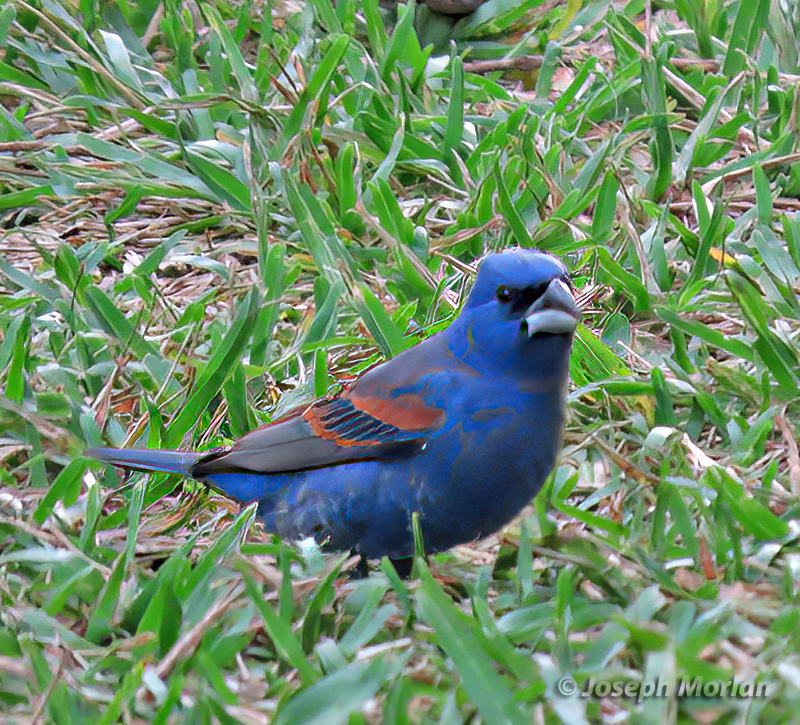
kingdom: Animalia
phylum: Chordata
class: Aves
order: Passeriformes
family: Cardinalidae
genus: Passerina
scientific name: Passerina caerulea
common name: Blue grosbeak
